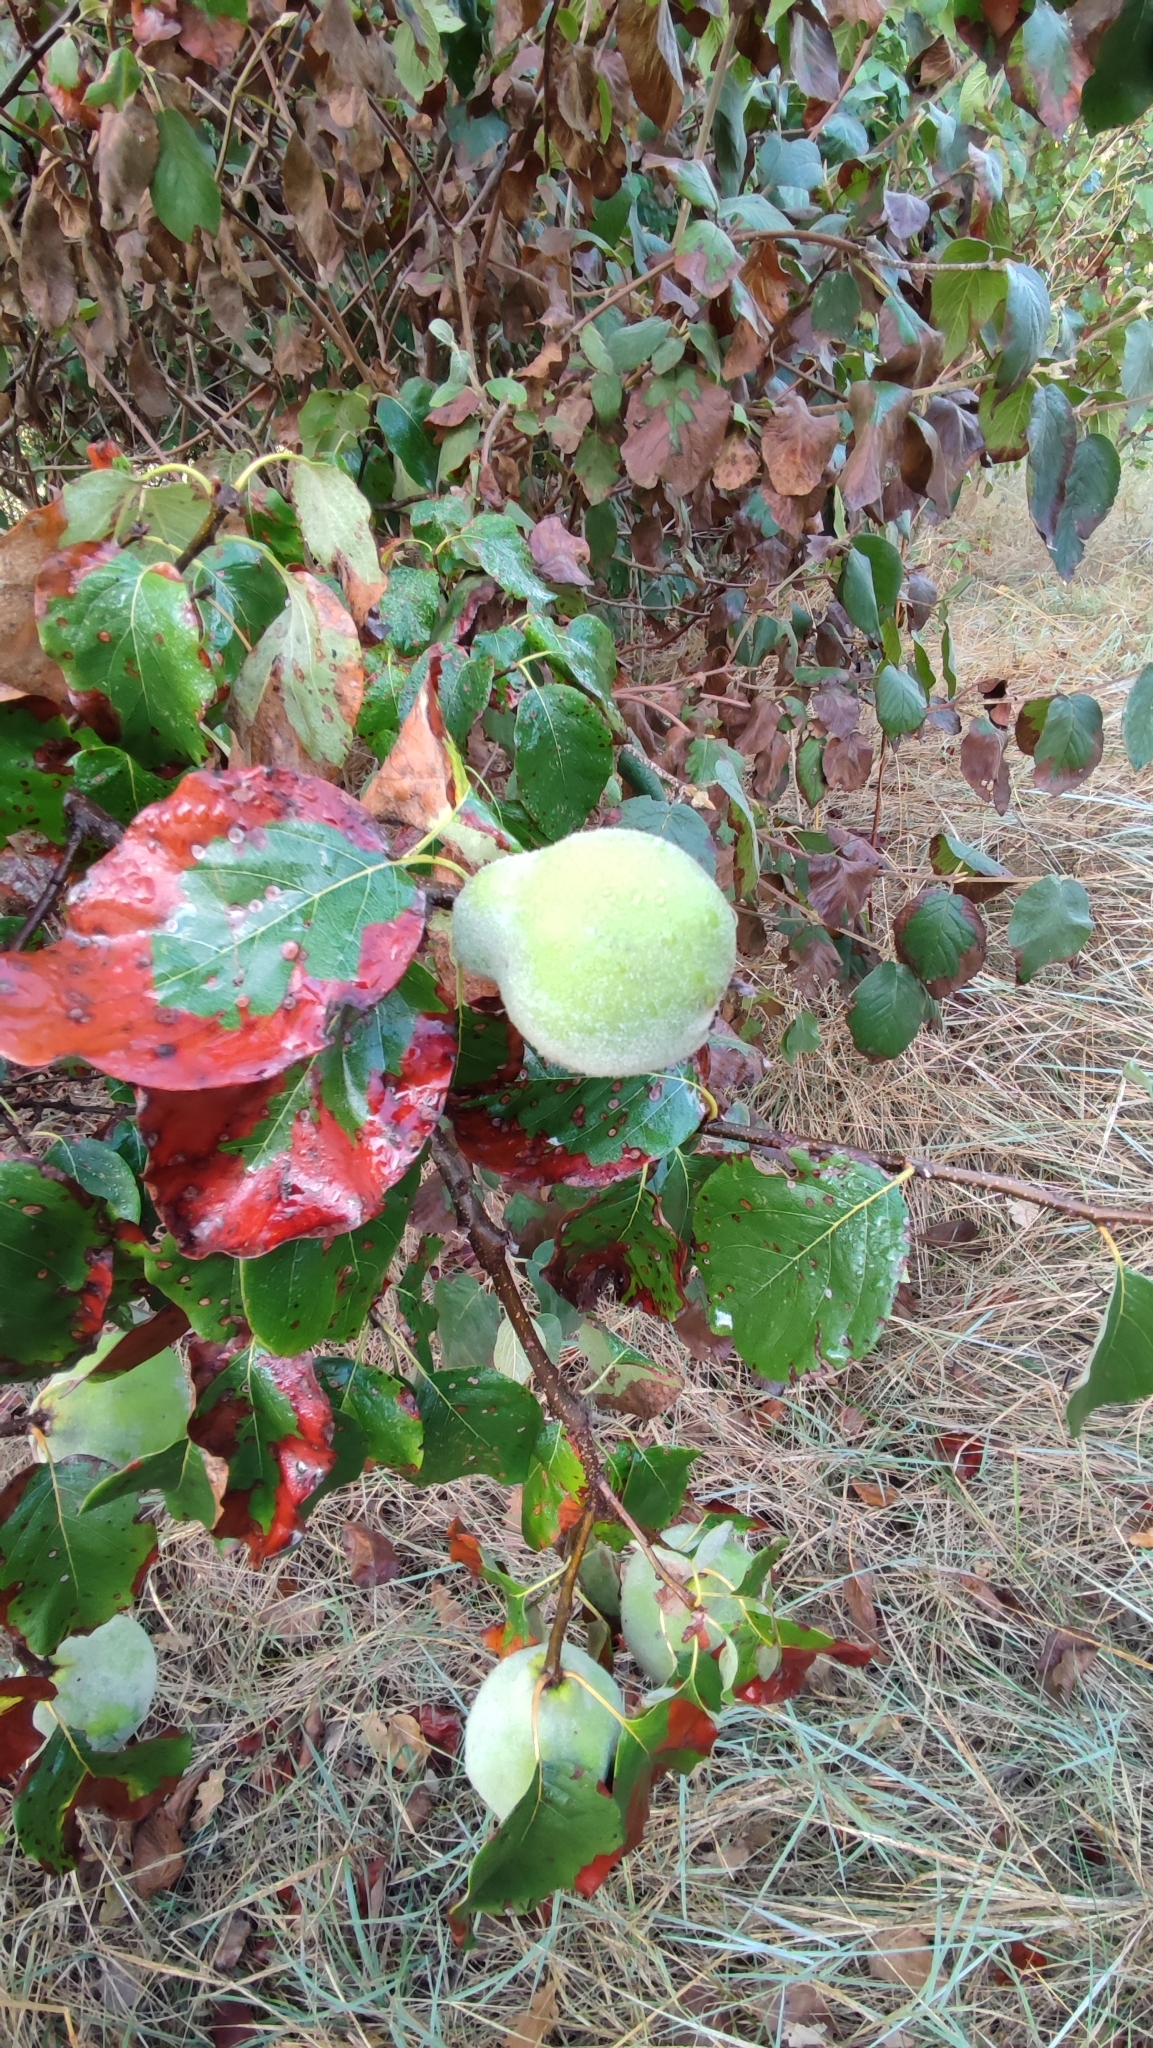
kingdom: Plantae
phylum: Tracheophyta
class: Magnoliopsida
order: Rosales
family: Rosaceae
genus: Cydonia
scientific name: Cydonia oblonga
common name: Quince
